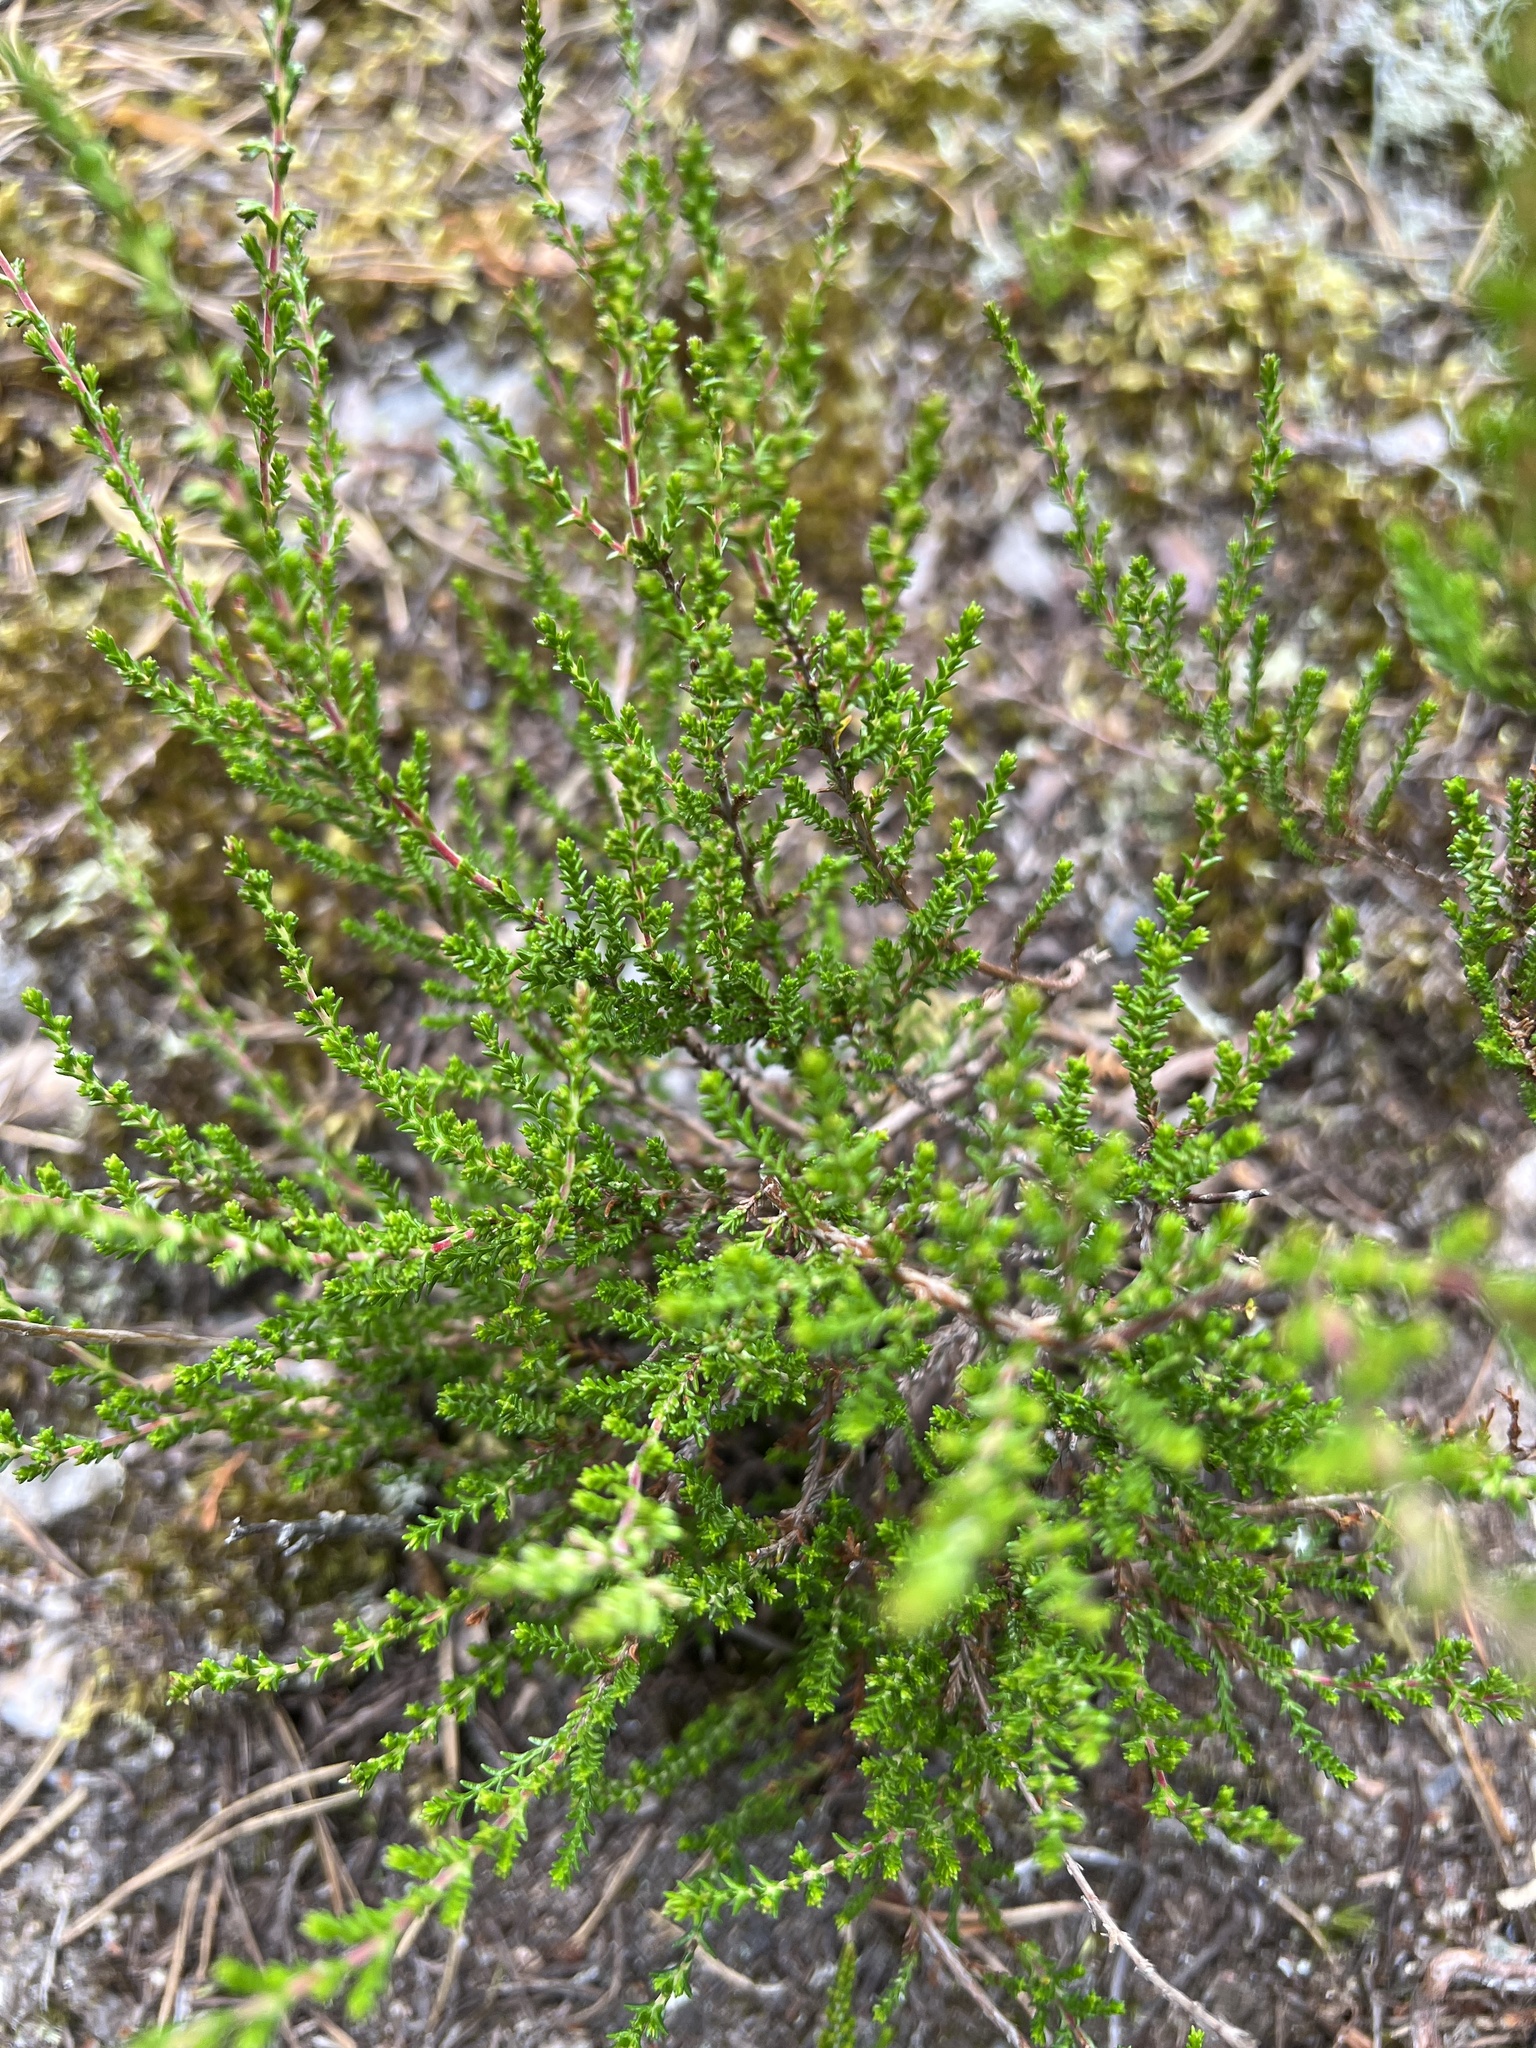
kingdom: Plantae
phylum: Tracheophyta
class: Magnoliopsida
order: Ericales
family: Ericaceae
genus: Calluna
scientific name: Calluna vulgaris
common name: Heather
